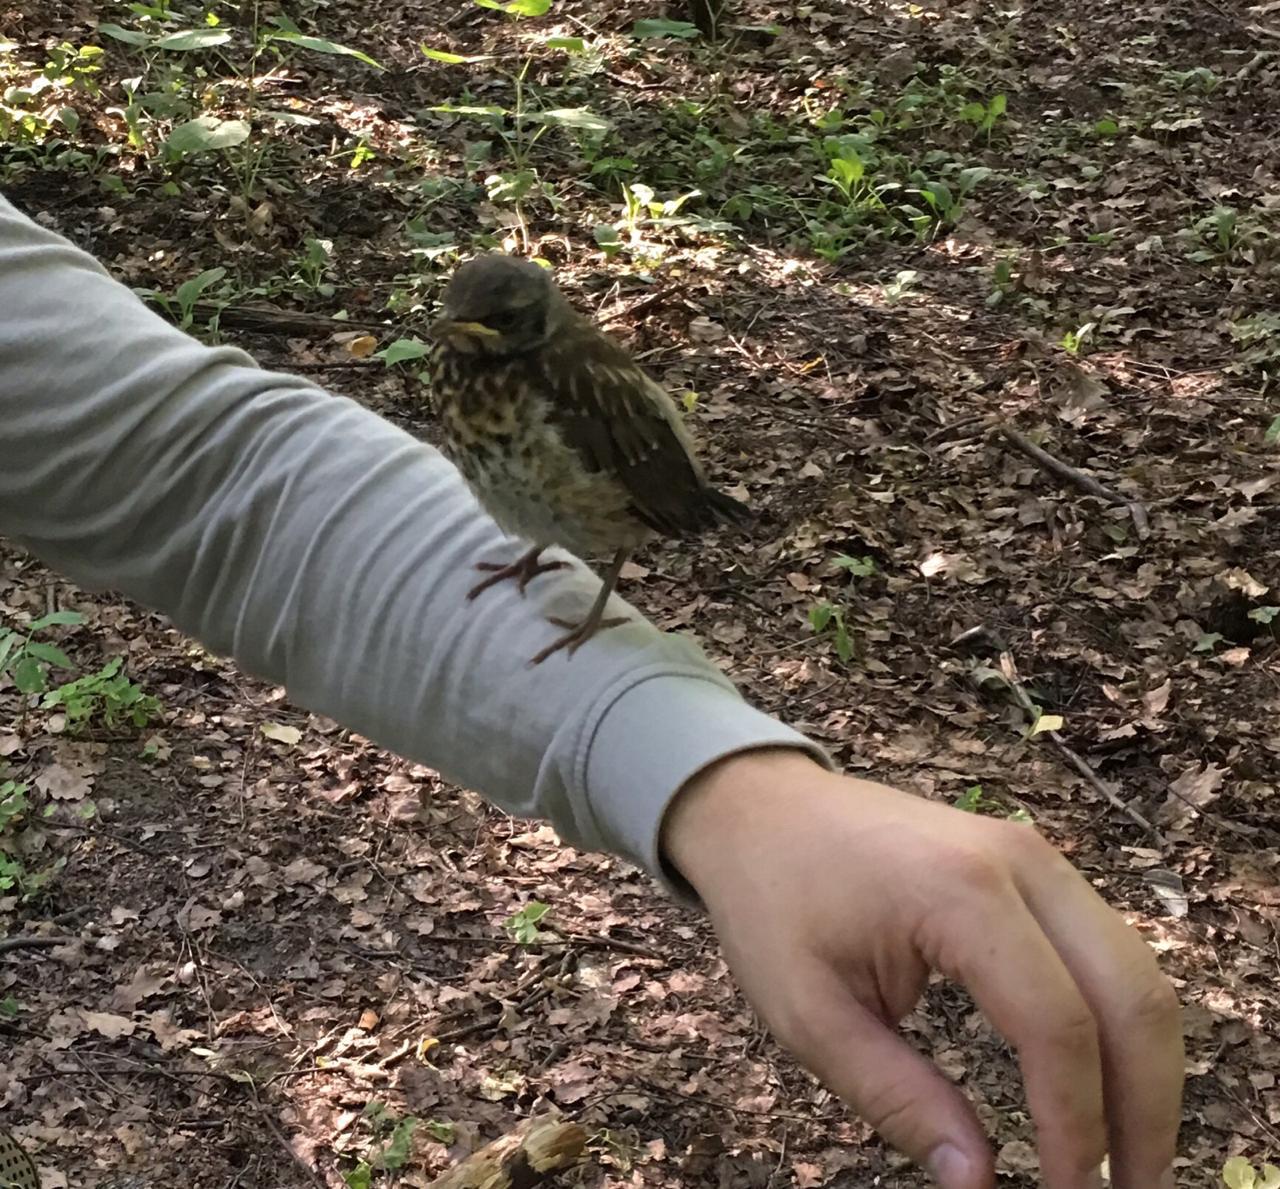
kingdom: Animalia
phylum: Chordata
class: Aves
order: Passeriformes
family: Turdidae
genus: Turdus
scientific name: Turdus pilaris
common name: Fieldfare
